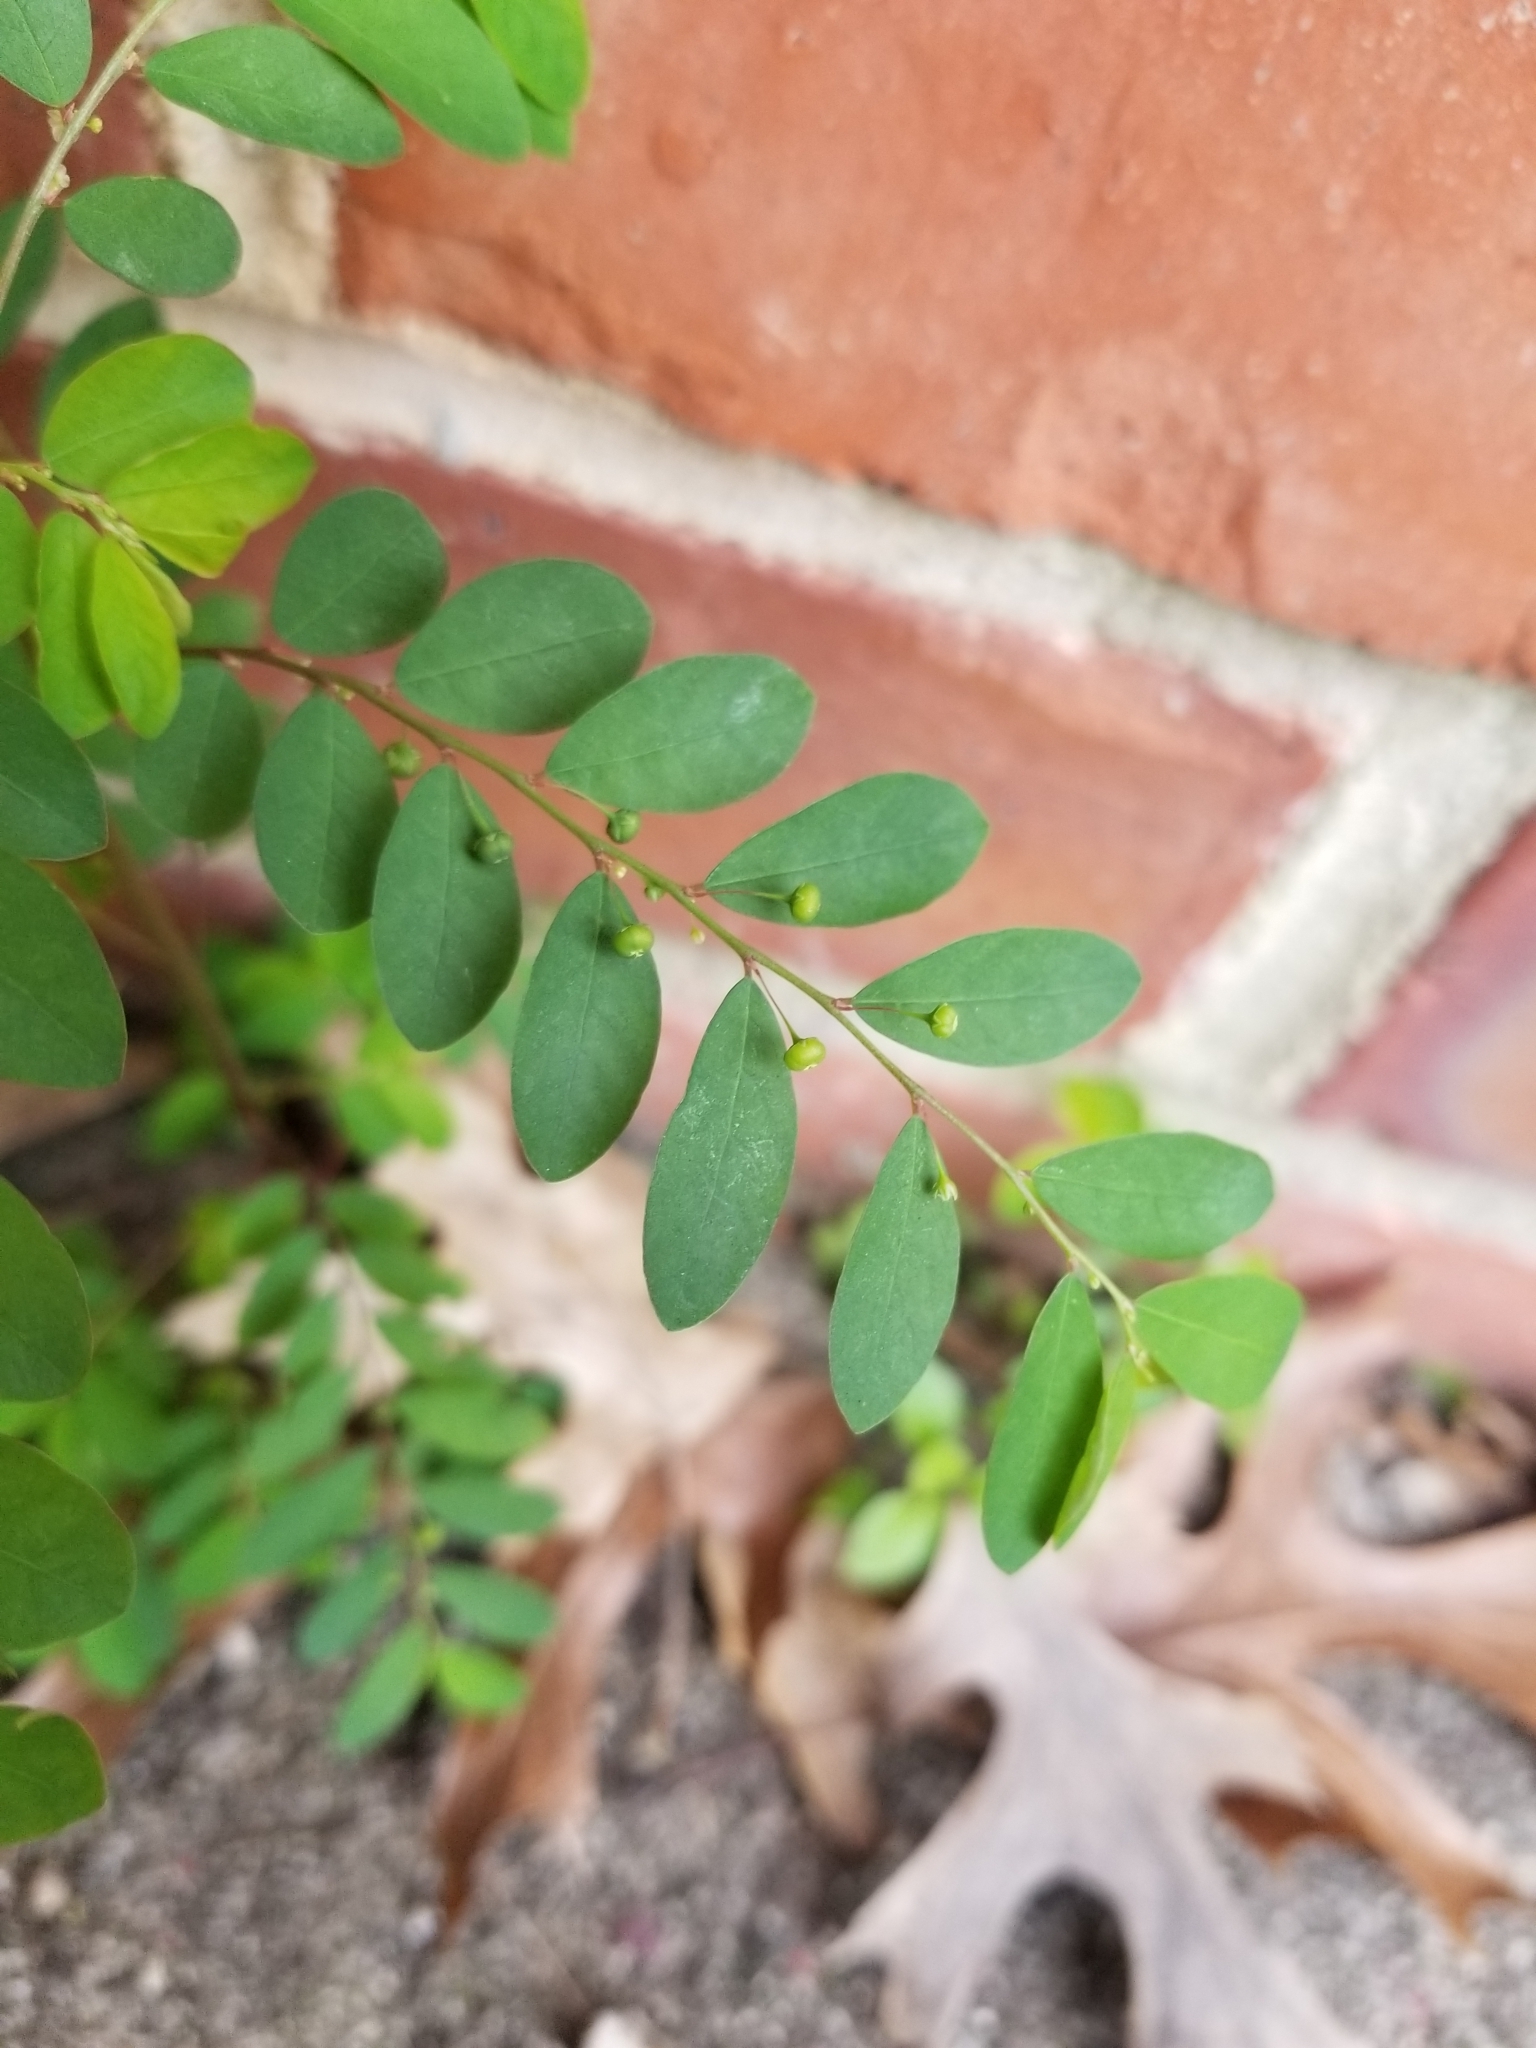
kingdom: Plantae
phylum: Tracheophyta
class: Magnoliopsida
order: Malpighiales
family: Phyllanthaceae
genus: Phyllanthus
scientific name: Phyllanthus tenellus
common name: Mascarene island leaf-flower
